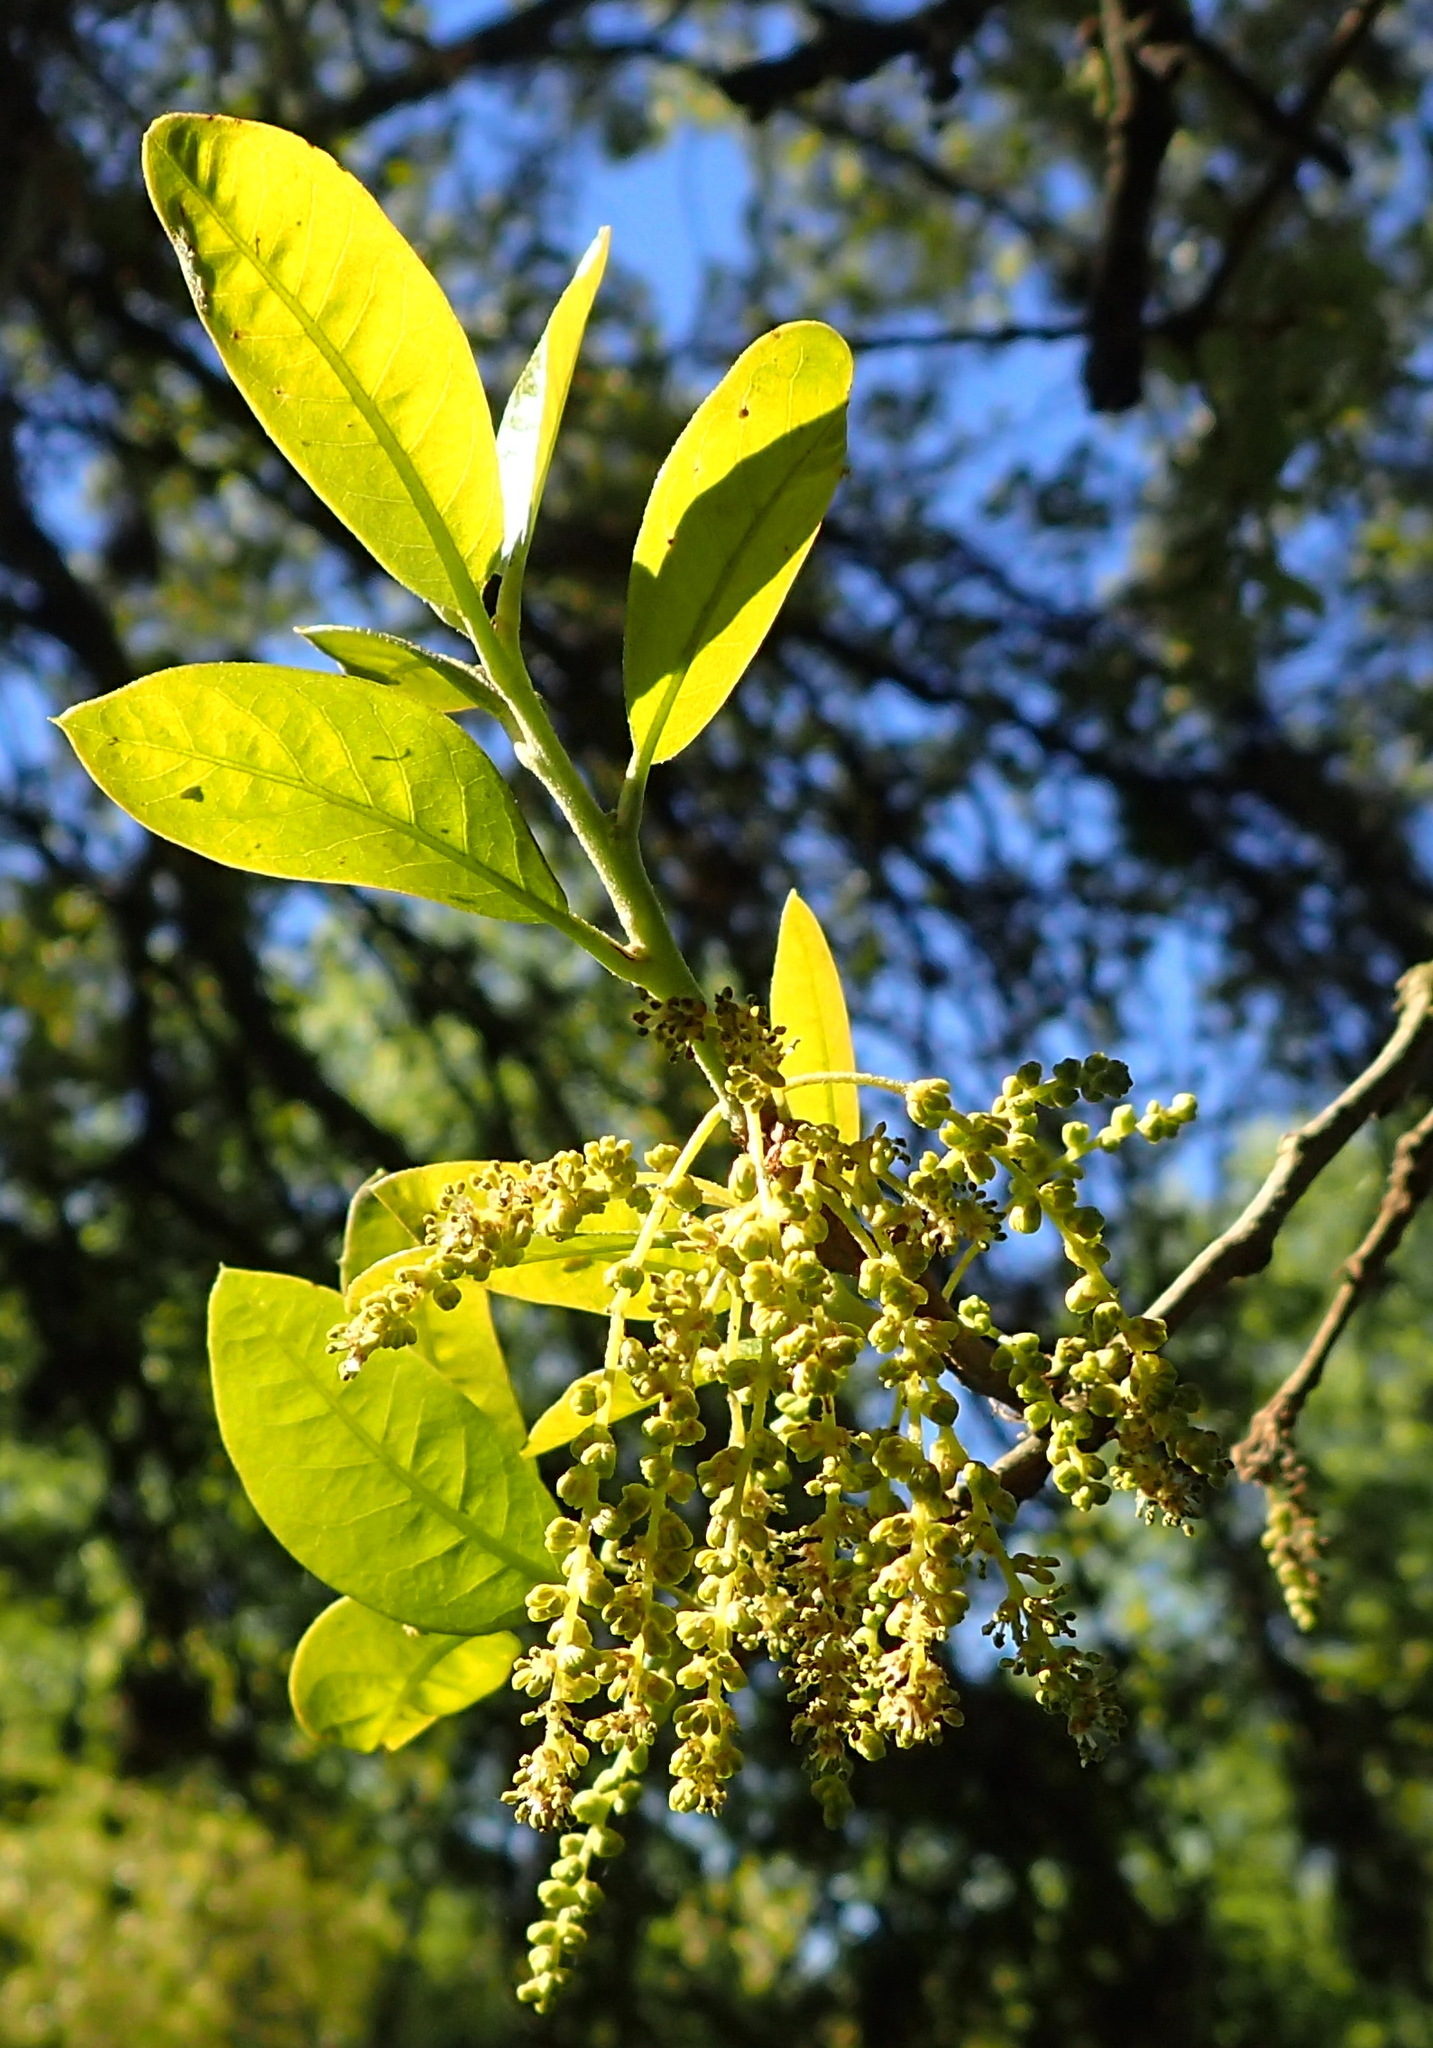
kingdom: Plantae
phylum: Tracheophyta
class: Magnoliopsida
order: Fagales
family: Fagaceae
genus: Quercus
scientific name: Quercus fusiformis
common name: Texas live oak
